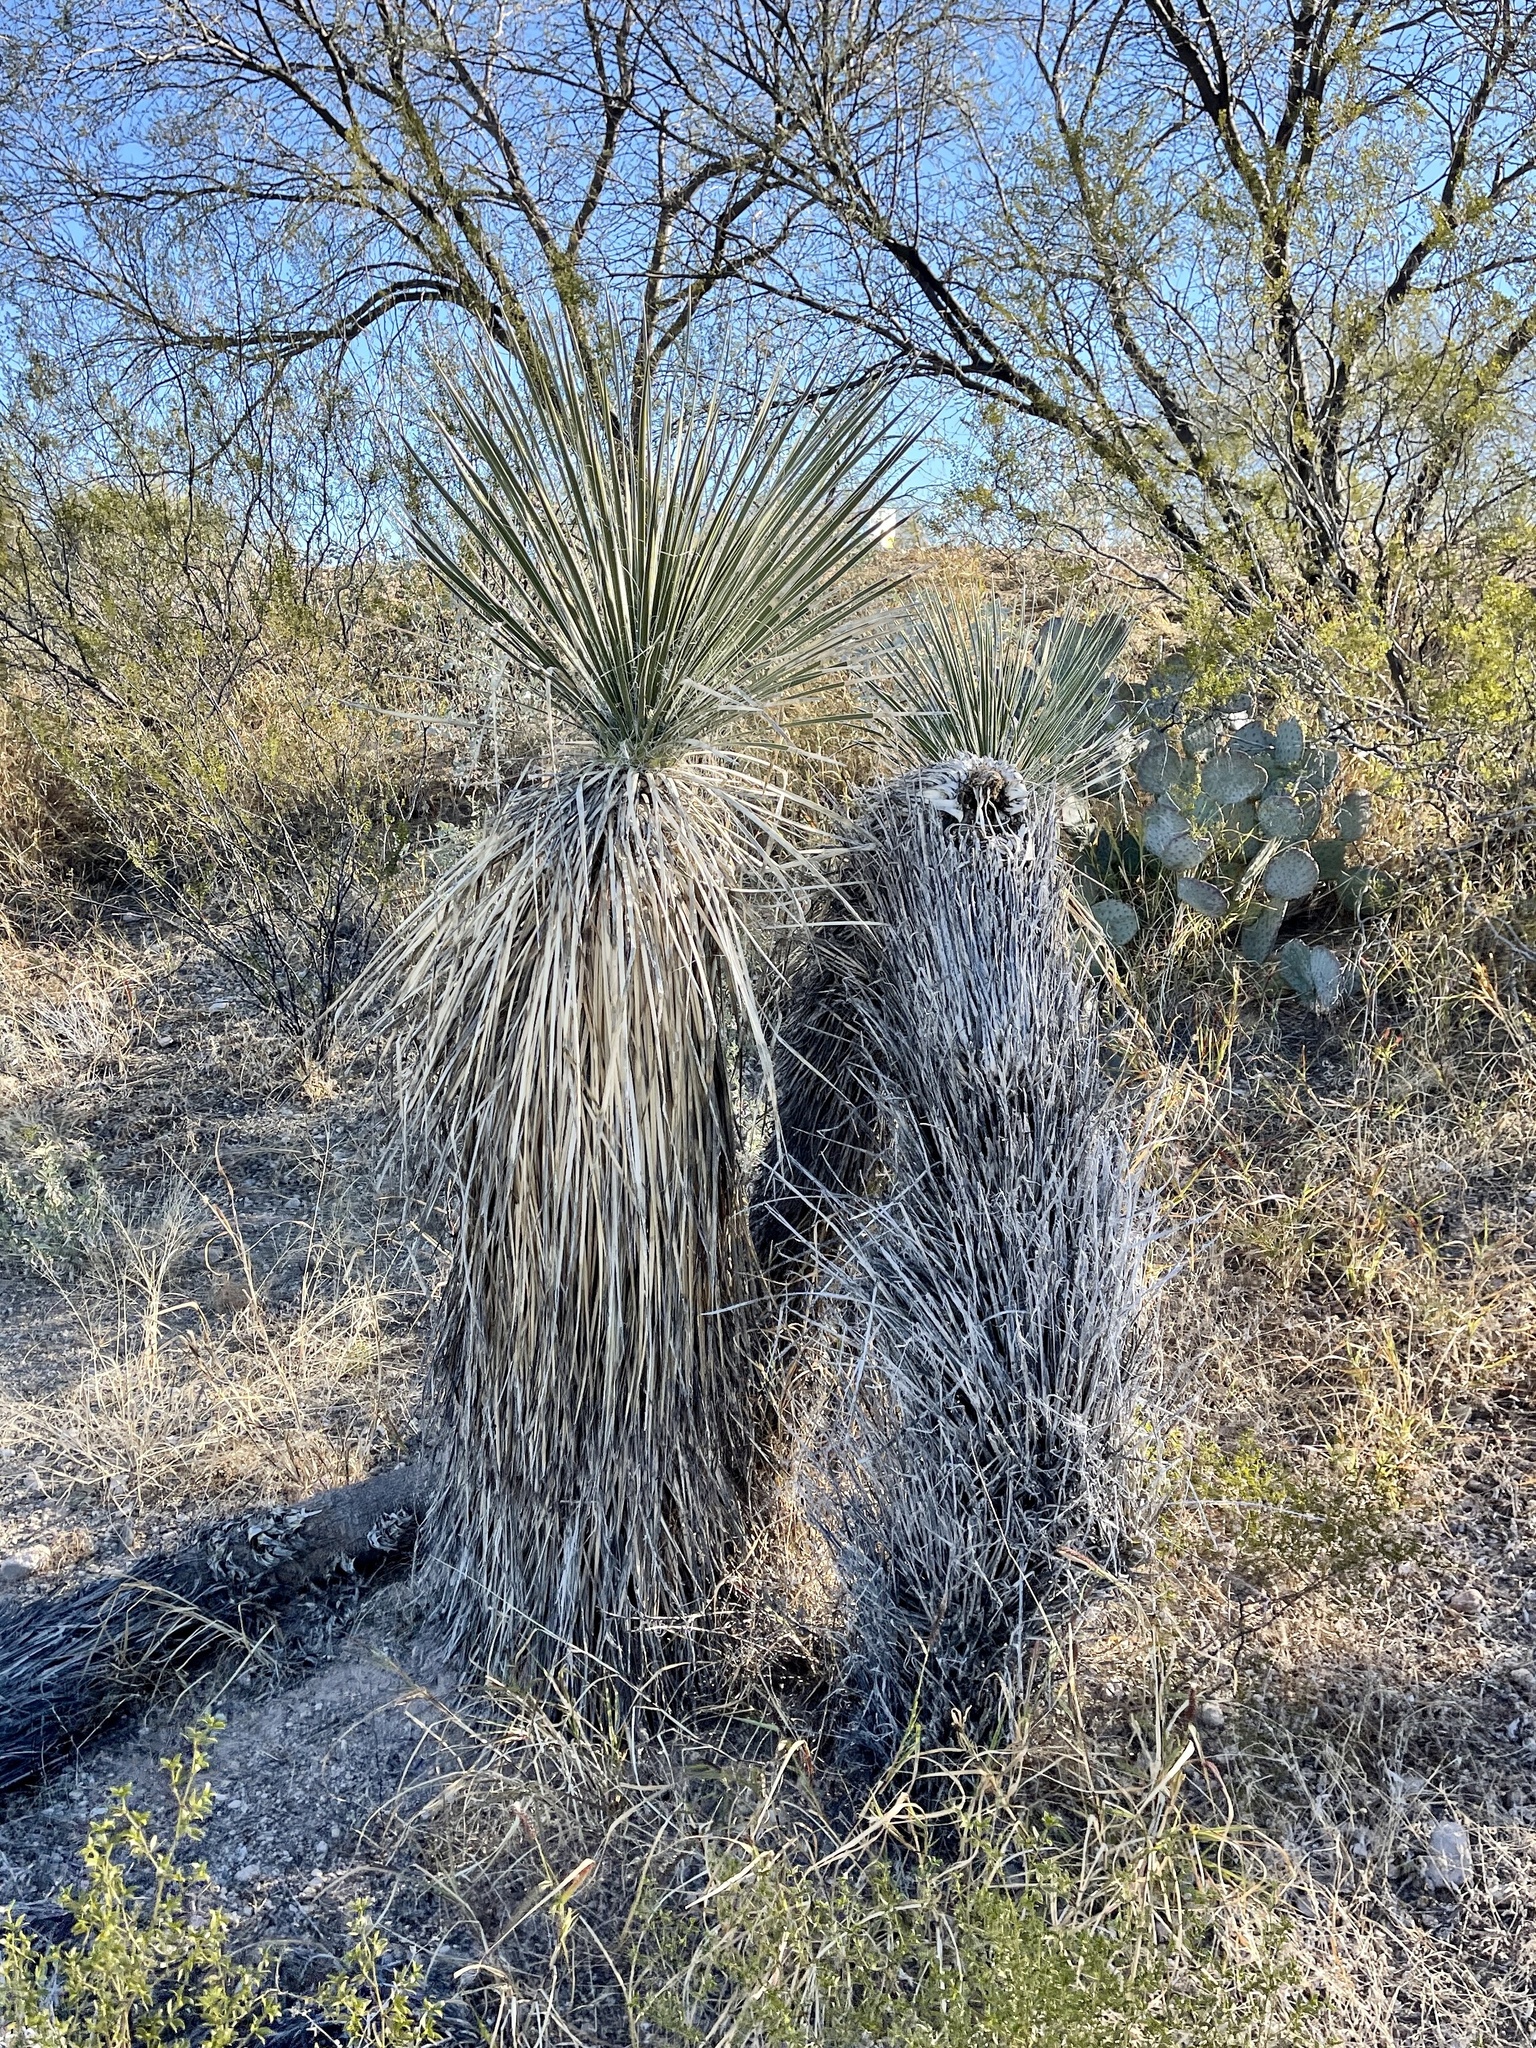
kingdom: Plantae
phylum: Tracheophyta
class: Liliopsida
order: Asparagales
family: Asparagaceae
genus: Yucca
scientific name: Yucca elata
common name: Palmella
